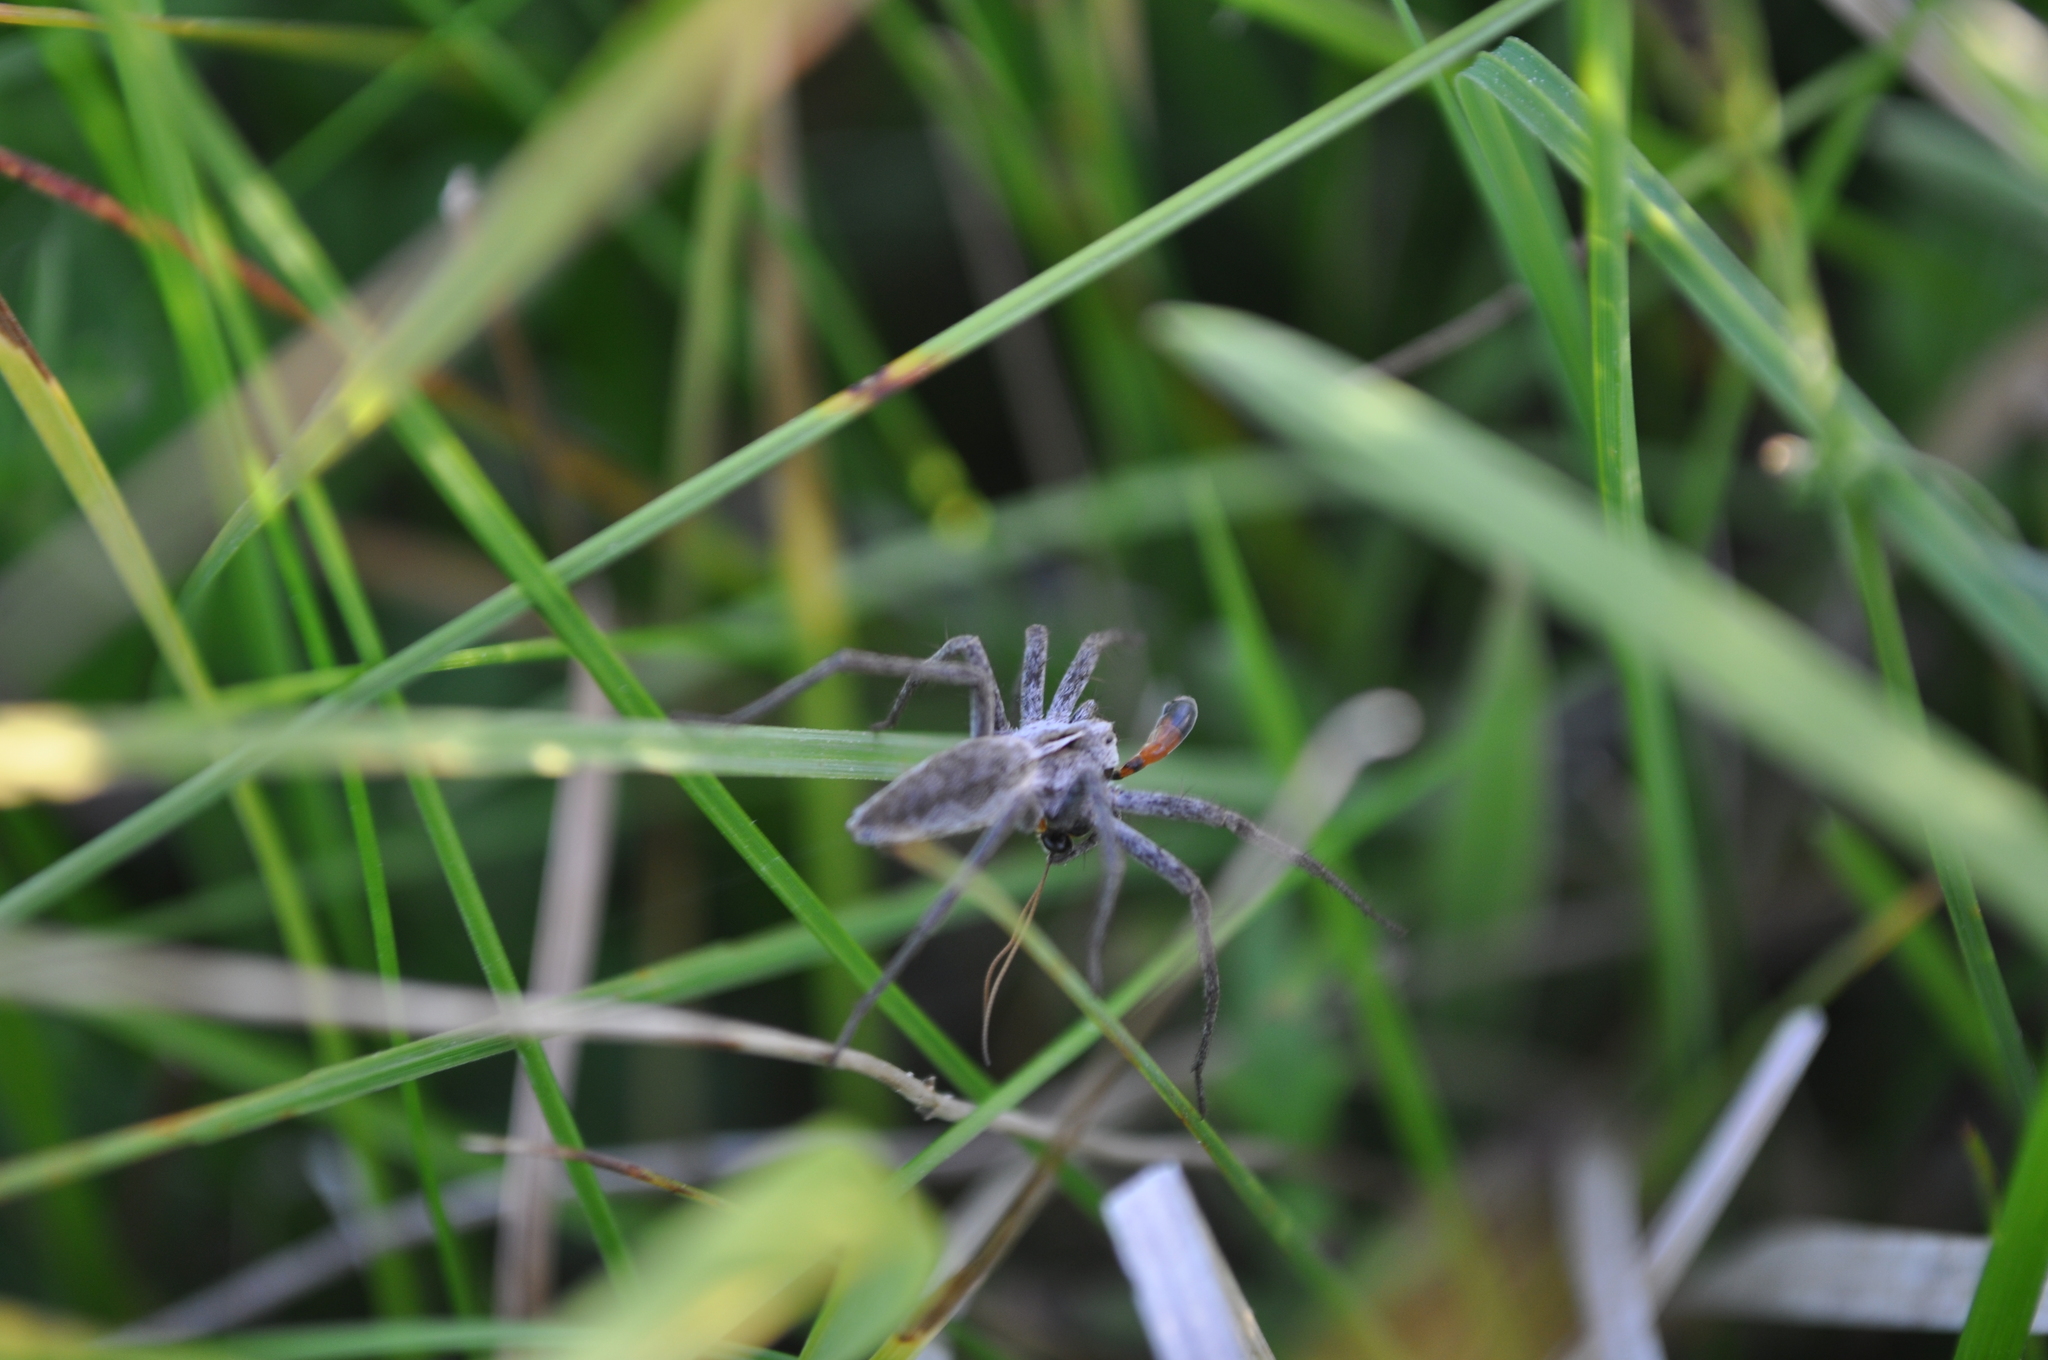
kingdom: Animalia
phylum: Arthropoda
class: Arachnida
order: Araneae
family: Pisauridae
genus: Pisaura
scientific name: Pisaura mirabilis
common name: Tent spider
